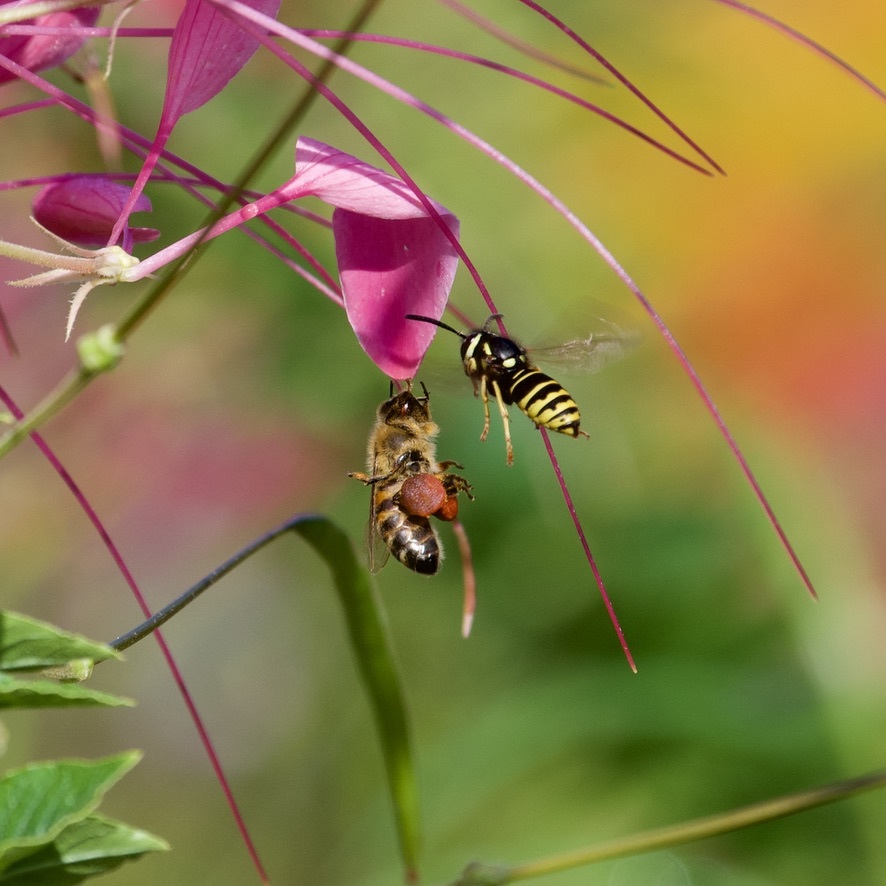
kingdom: Animalia
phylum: Arthropoda
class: Insecta
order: Hymenoptera
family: Vespidae
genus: Vespula
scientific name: Vespula vidua
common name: Widow yellowjacket
